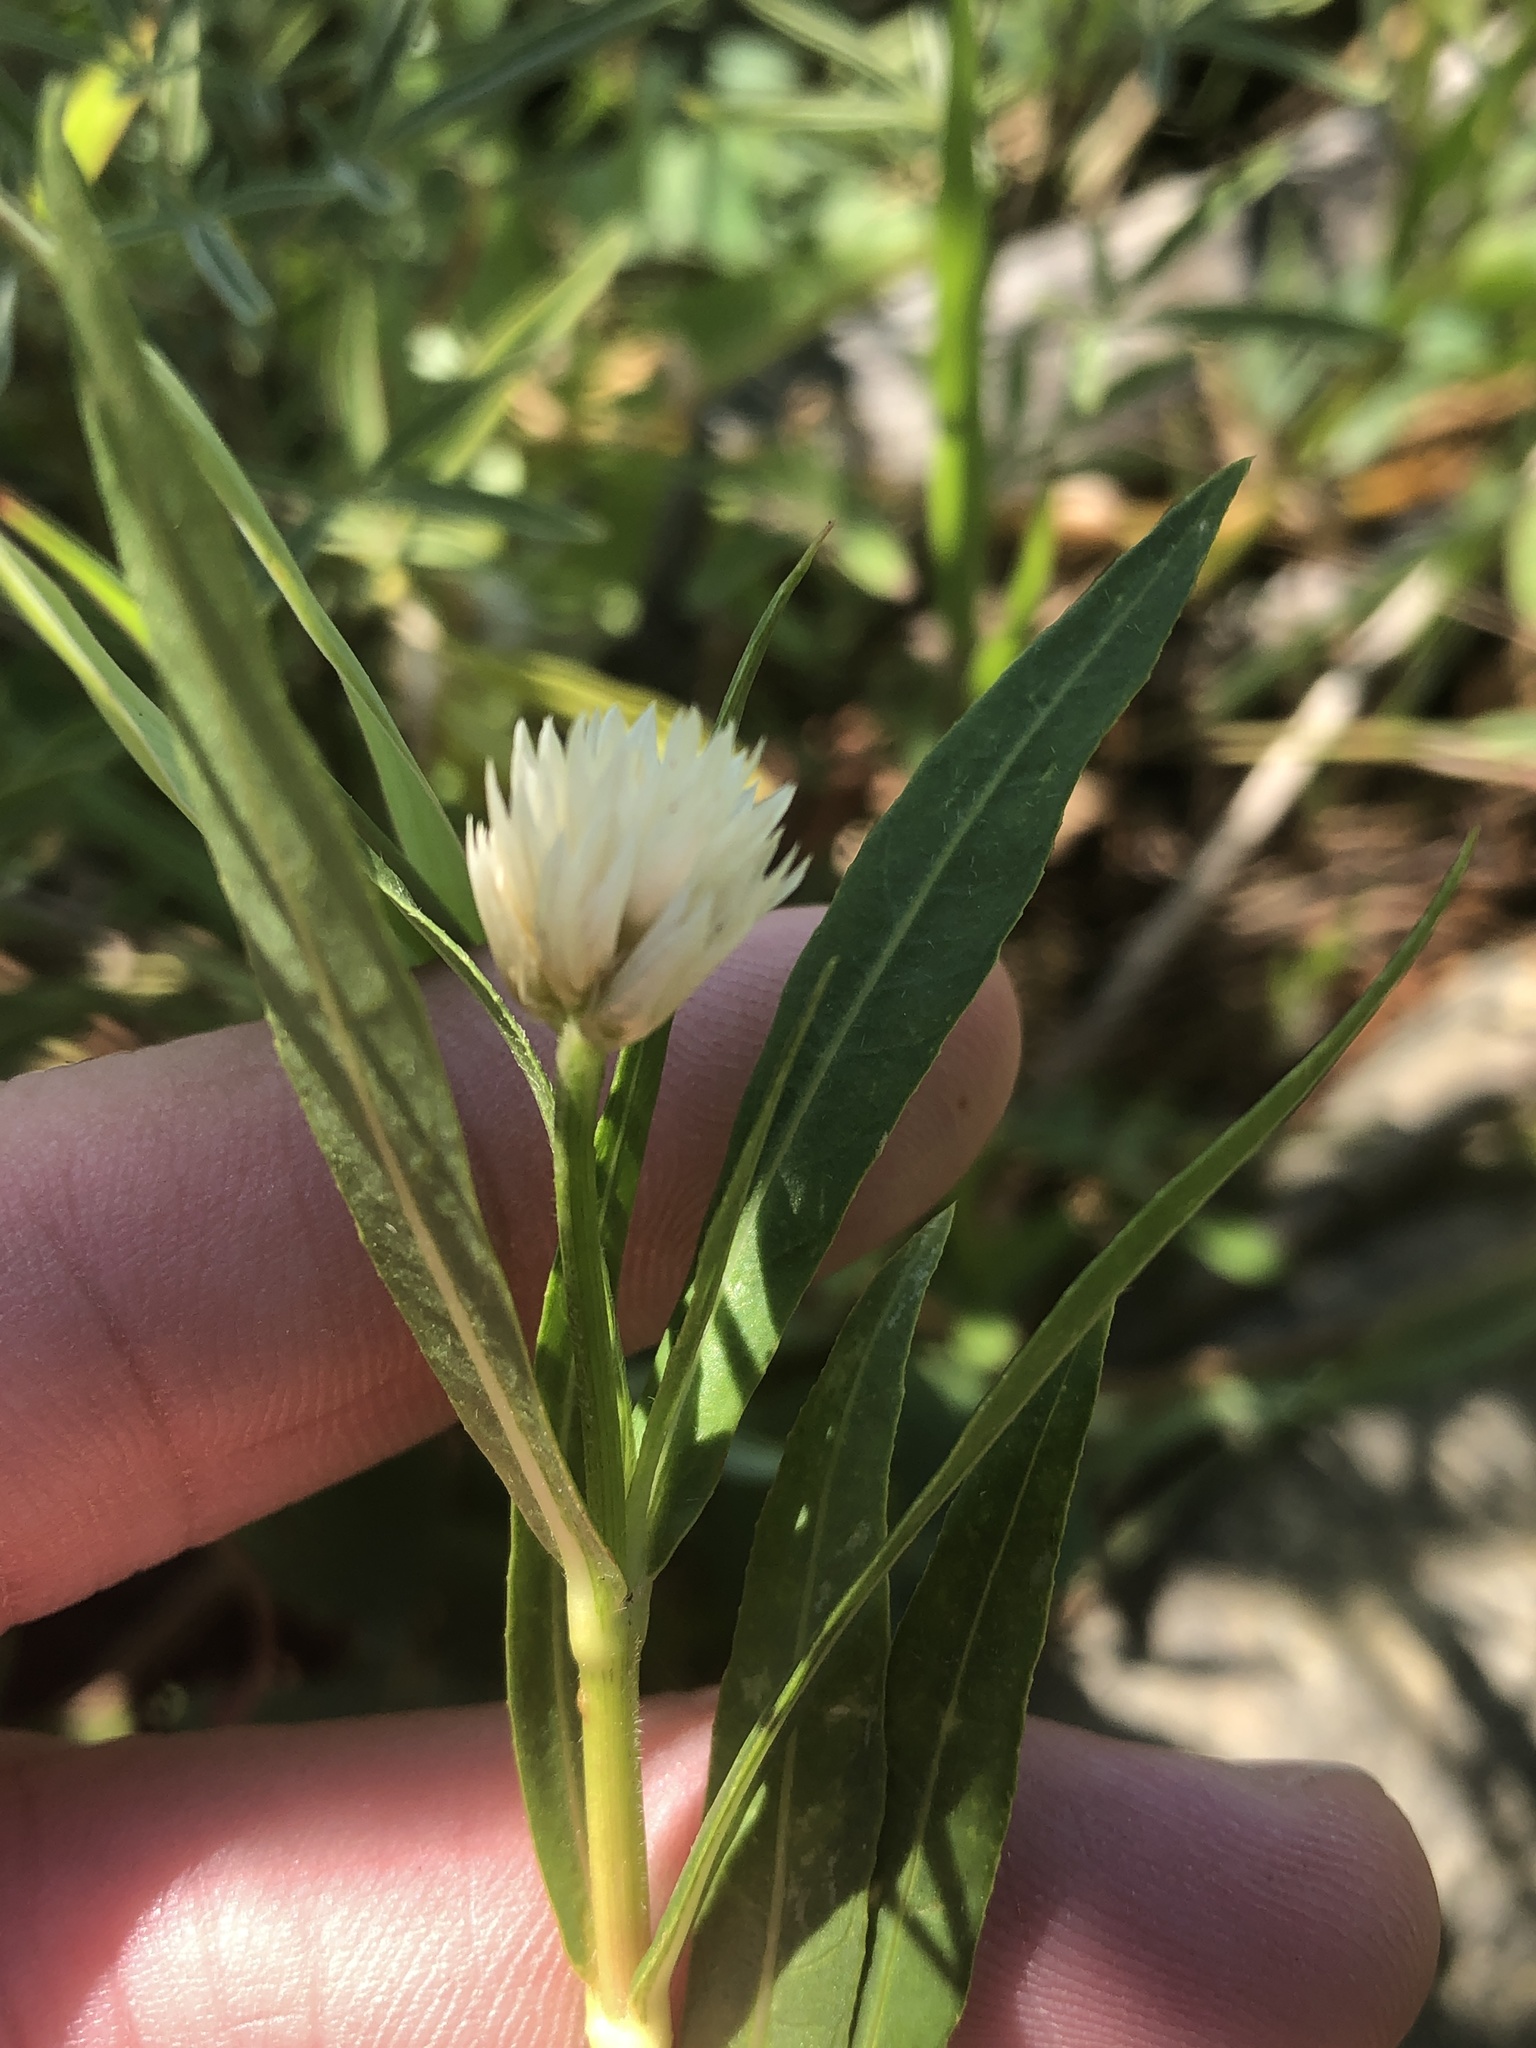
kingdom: Plantae
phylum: Tracheophyta
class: Magnoliopsida
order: Caryophyllales
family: Amaranthaceae
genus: Alternanthera
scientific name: Alternanthera philoxeroides
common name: Alligatorweed
